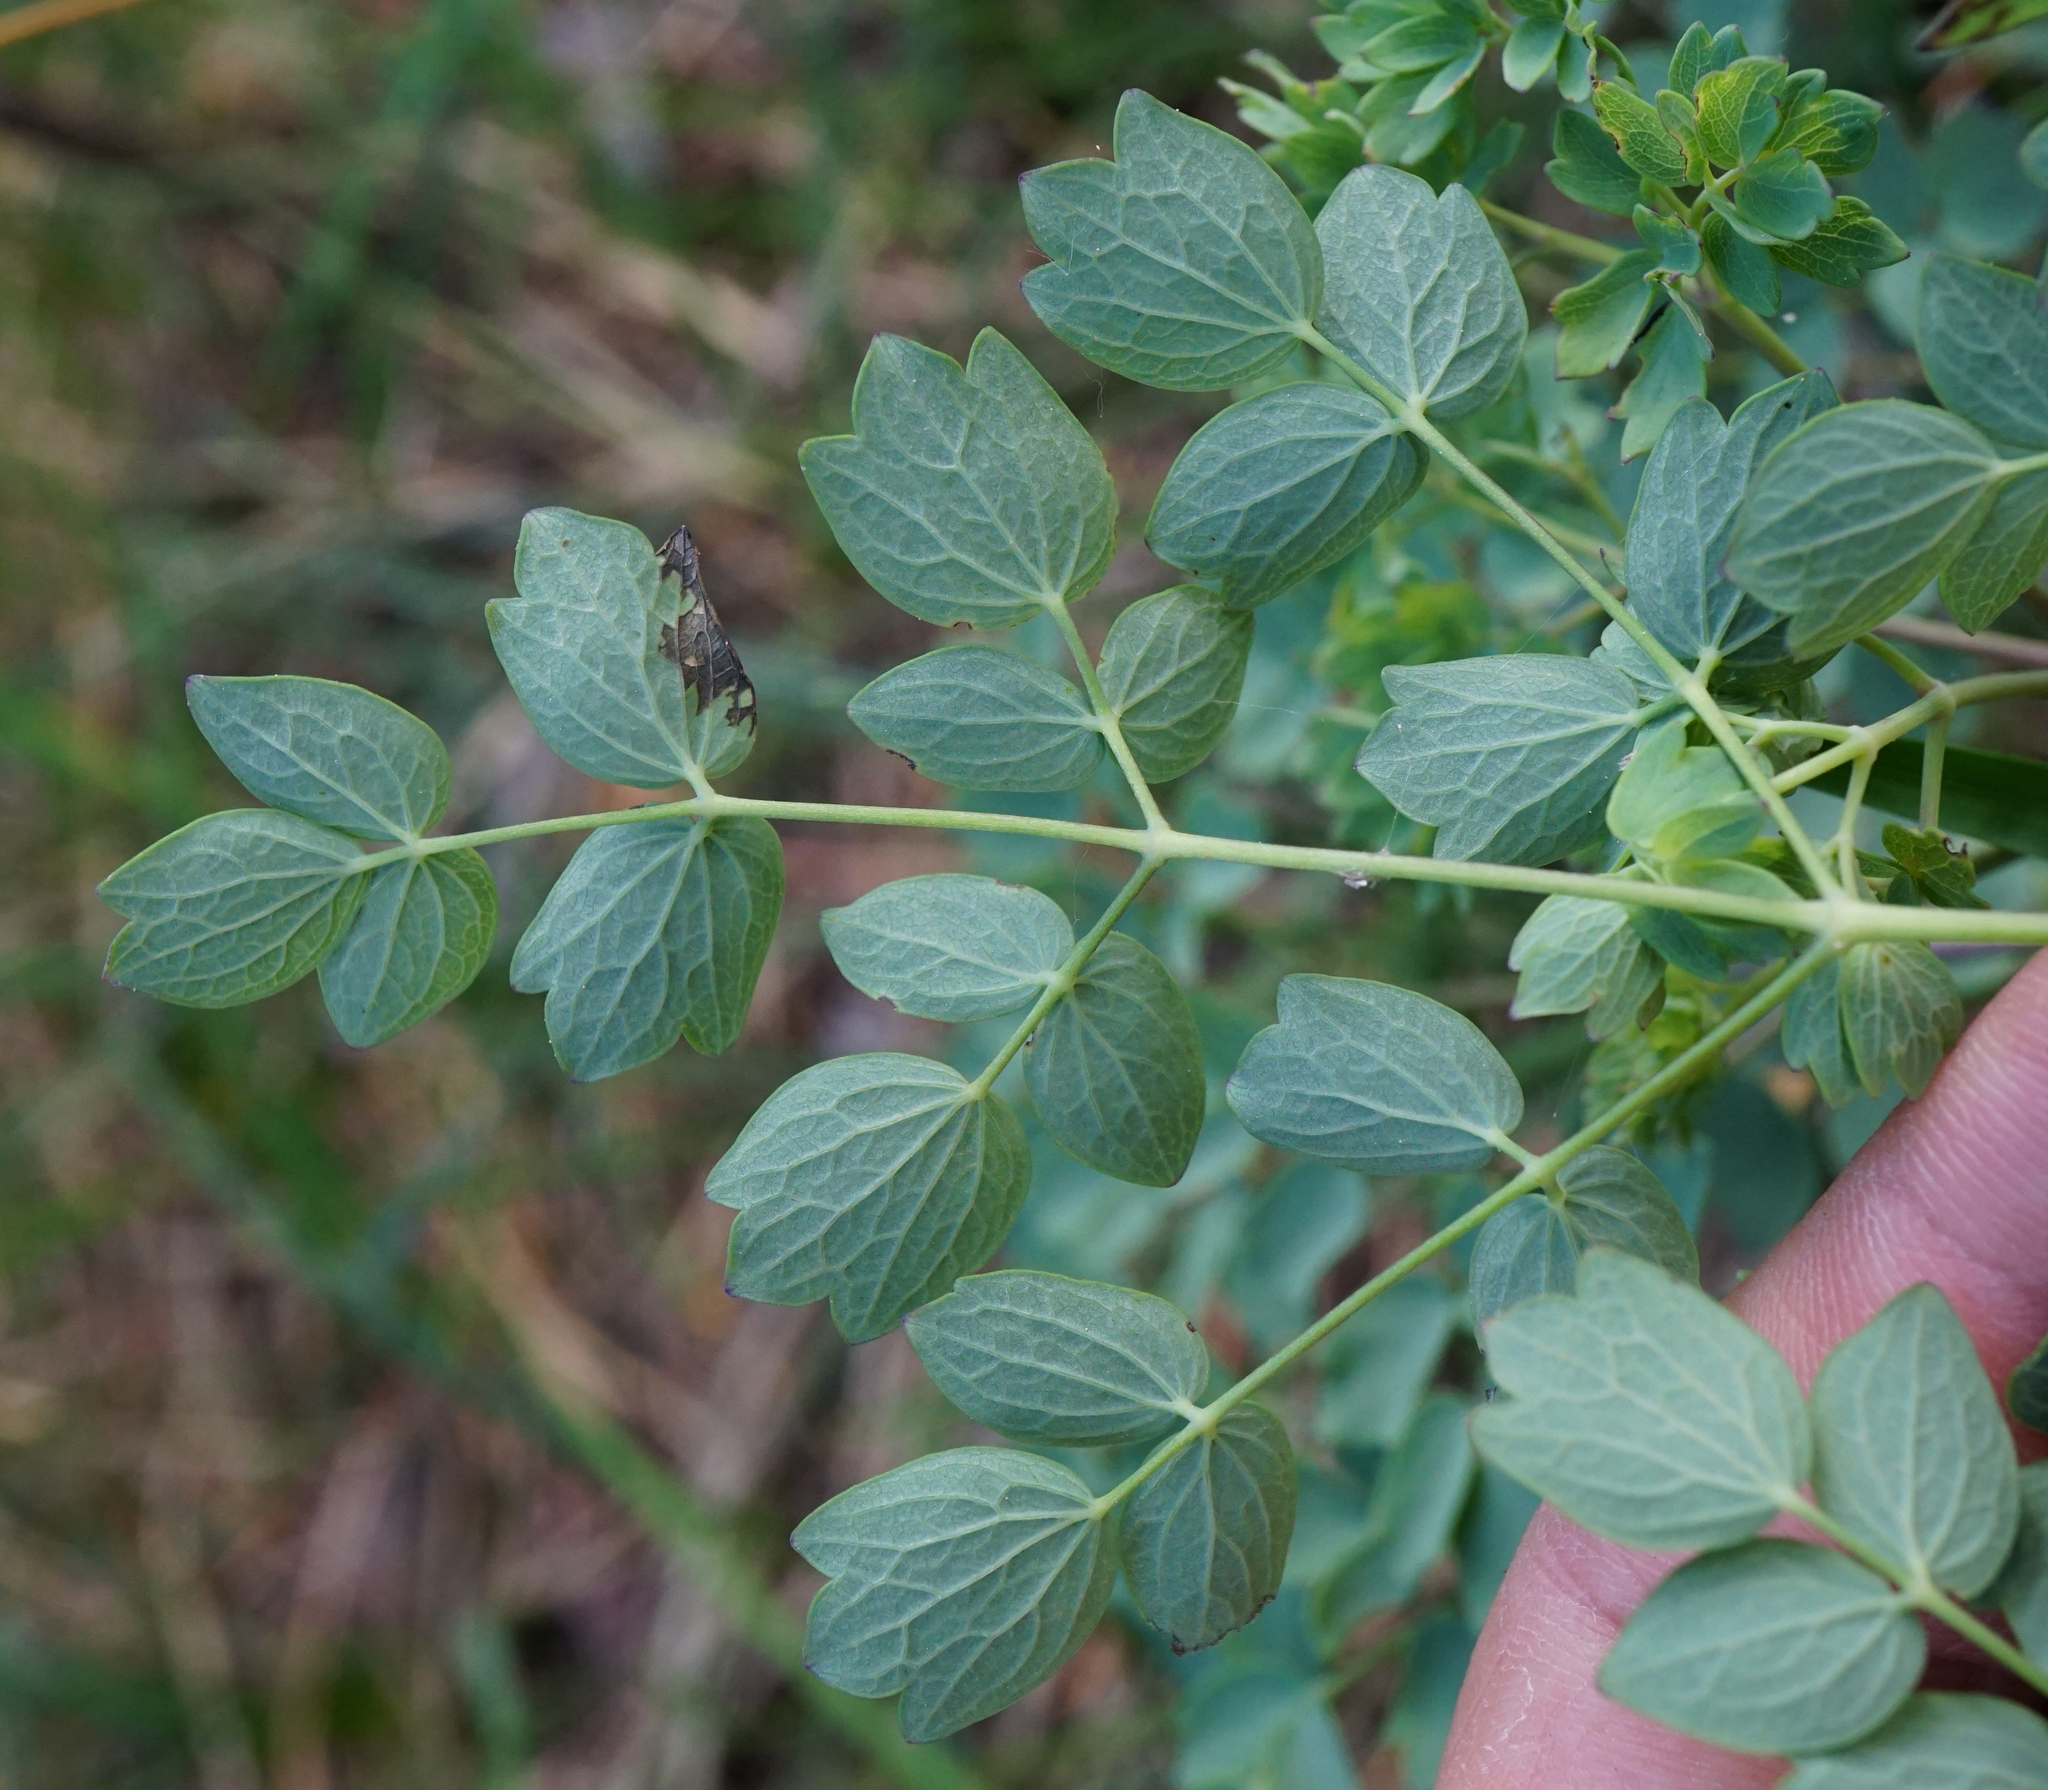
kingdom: Plantae
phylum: Tracheophyta
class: Magnoliopsida
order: Ranunculales
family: Ranunculaceae
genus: Thalictrum
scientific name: Thalictrum minus
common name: Lesser meadow-rue
